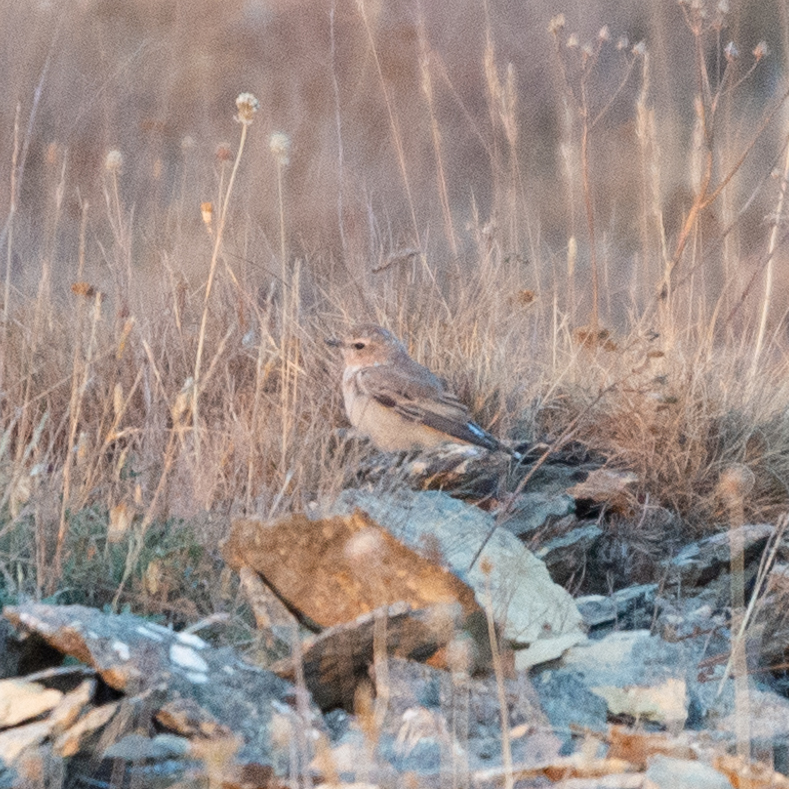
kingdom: Animalia
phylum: Chordata
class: Aves
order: Passeriformes
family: Muscicapidae
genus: Oenanthe
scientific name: Oenanthe oenanthe
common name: Northern wheatear
